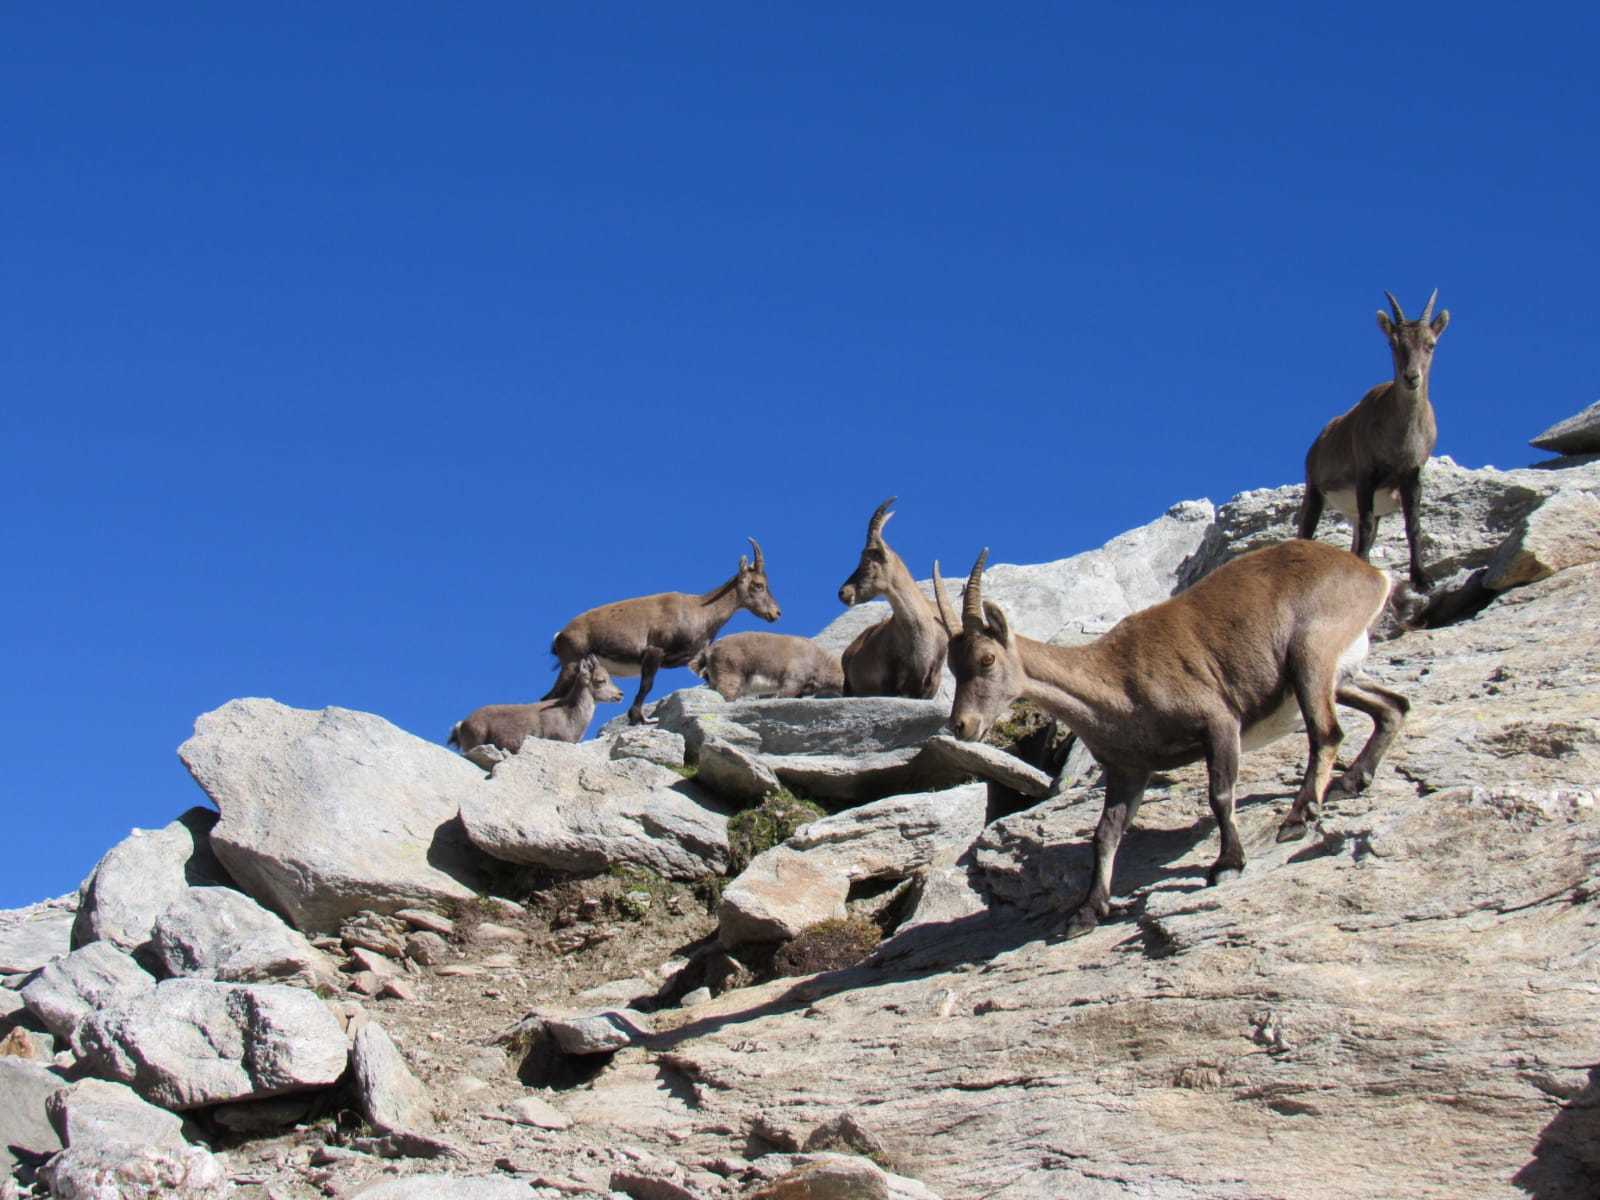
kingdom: Animalia
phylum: Chordata
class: Mammalia
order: Artiodactyla
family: Bovidae
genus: Capra
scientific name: Capra ibex
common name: Alpine ibex
